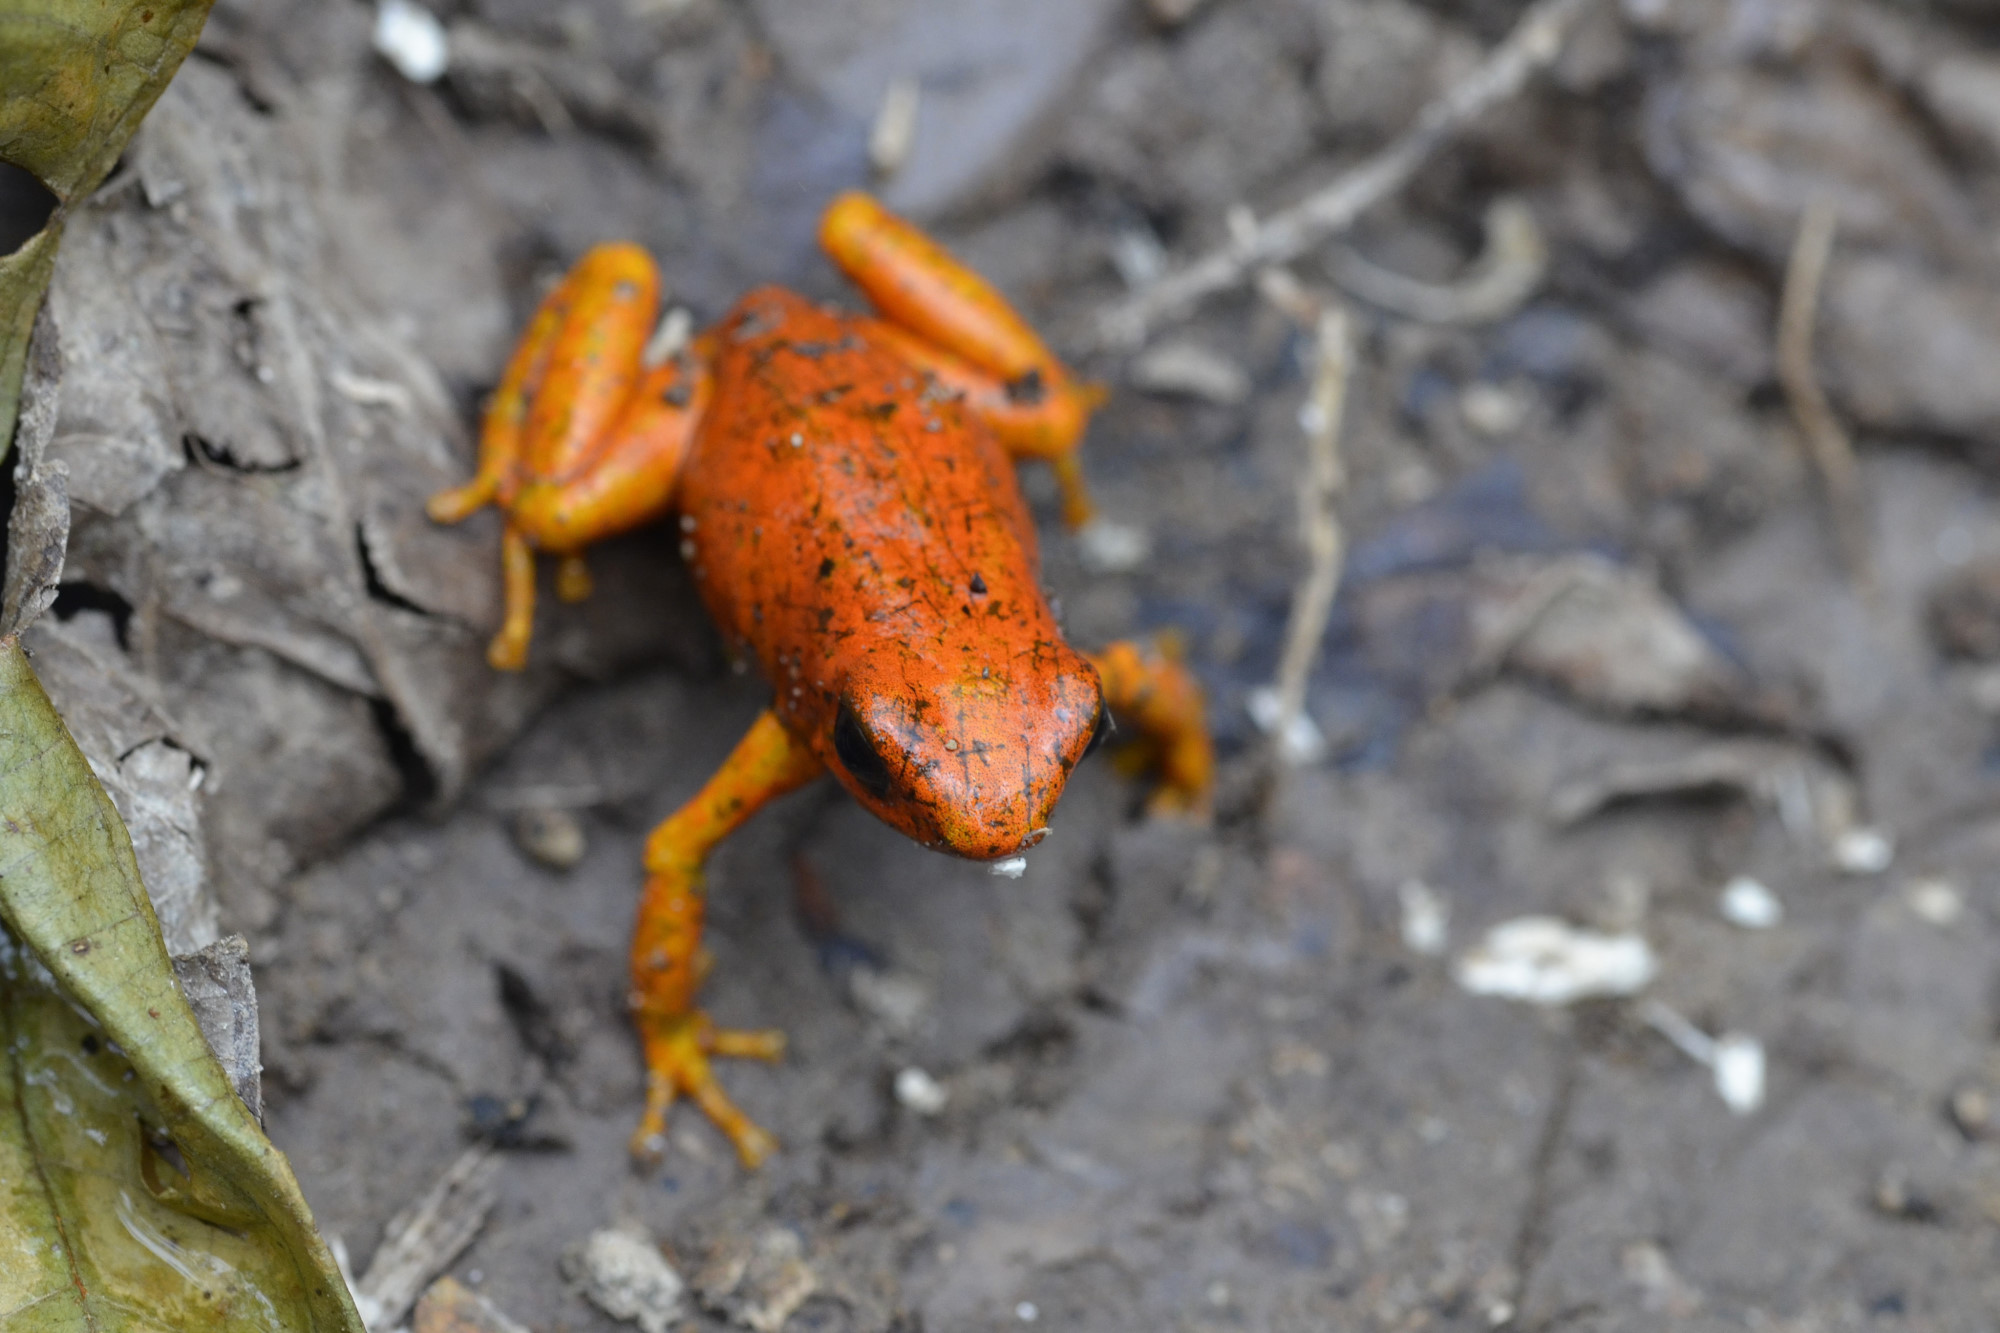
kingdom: Animalia
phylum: Chordata
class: Amphibia
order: Anura
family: Dendrobatidae
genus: Oophaga
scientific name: Oophaga sylvatica
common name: Little-devil poison frog
